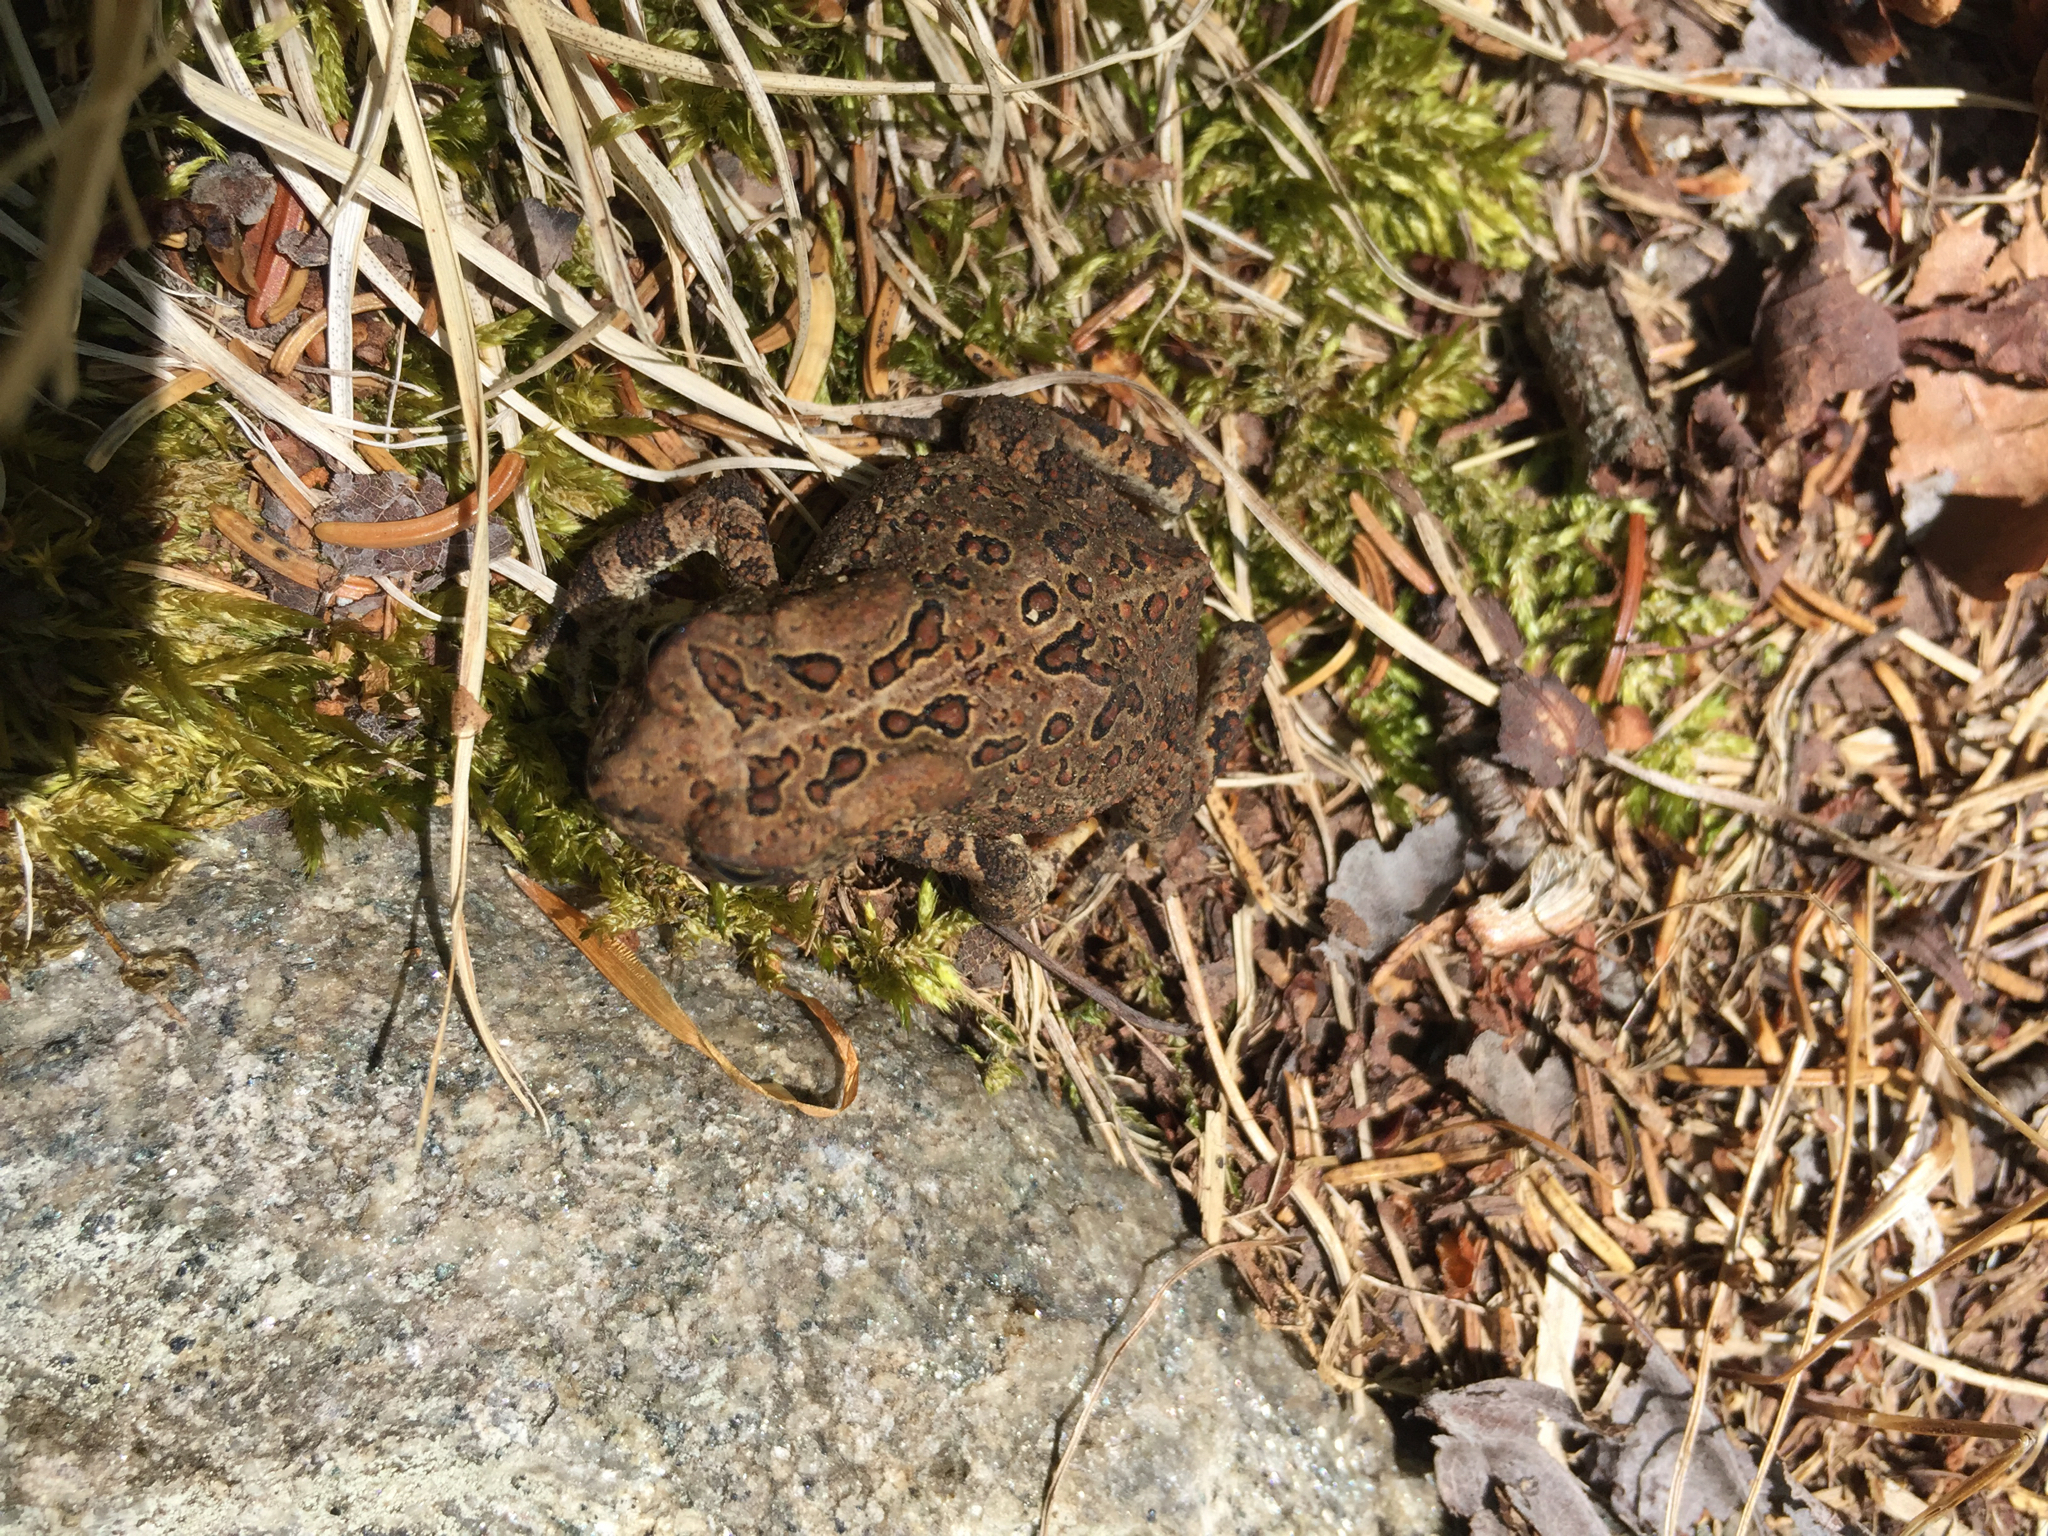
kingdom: Animalia
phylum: Chordata
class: Amphibia
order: Anura
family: Bufonidae
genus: Anaxyrus
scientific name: Anaxyrus americanus
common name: American toad
